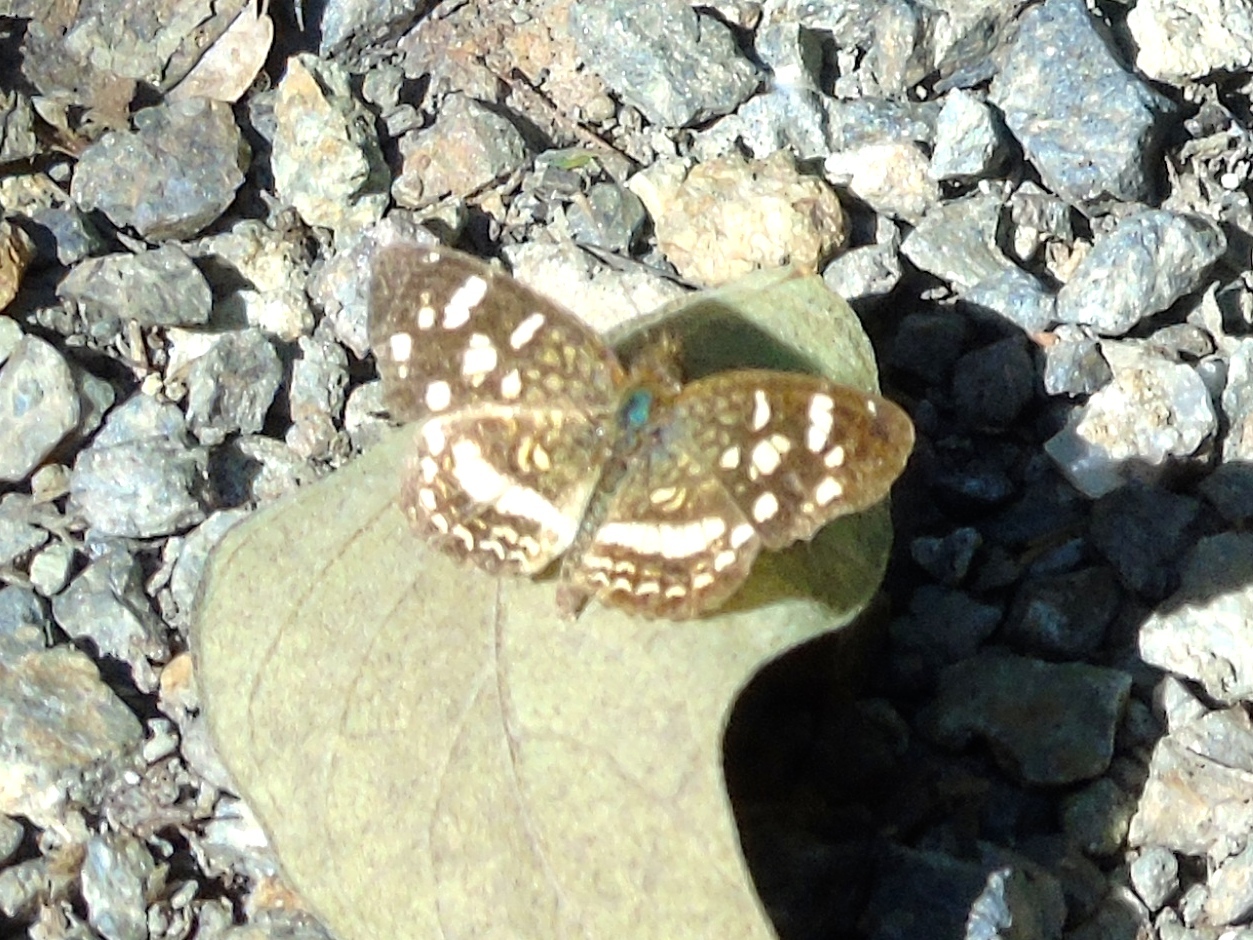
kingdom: Animalia
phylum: Arthropoda
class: Insecta
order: Lepidoptera
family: Nymphalidae
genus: Anthanassa
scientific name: Anthanassa tulcis
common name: Pale-banded crescent
